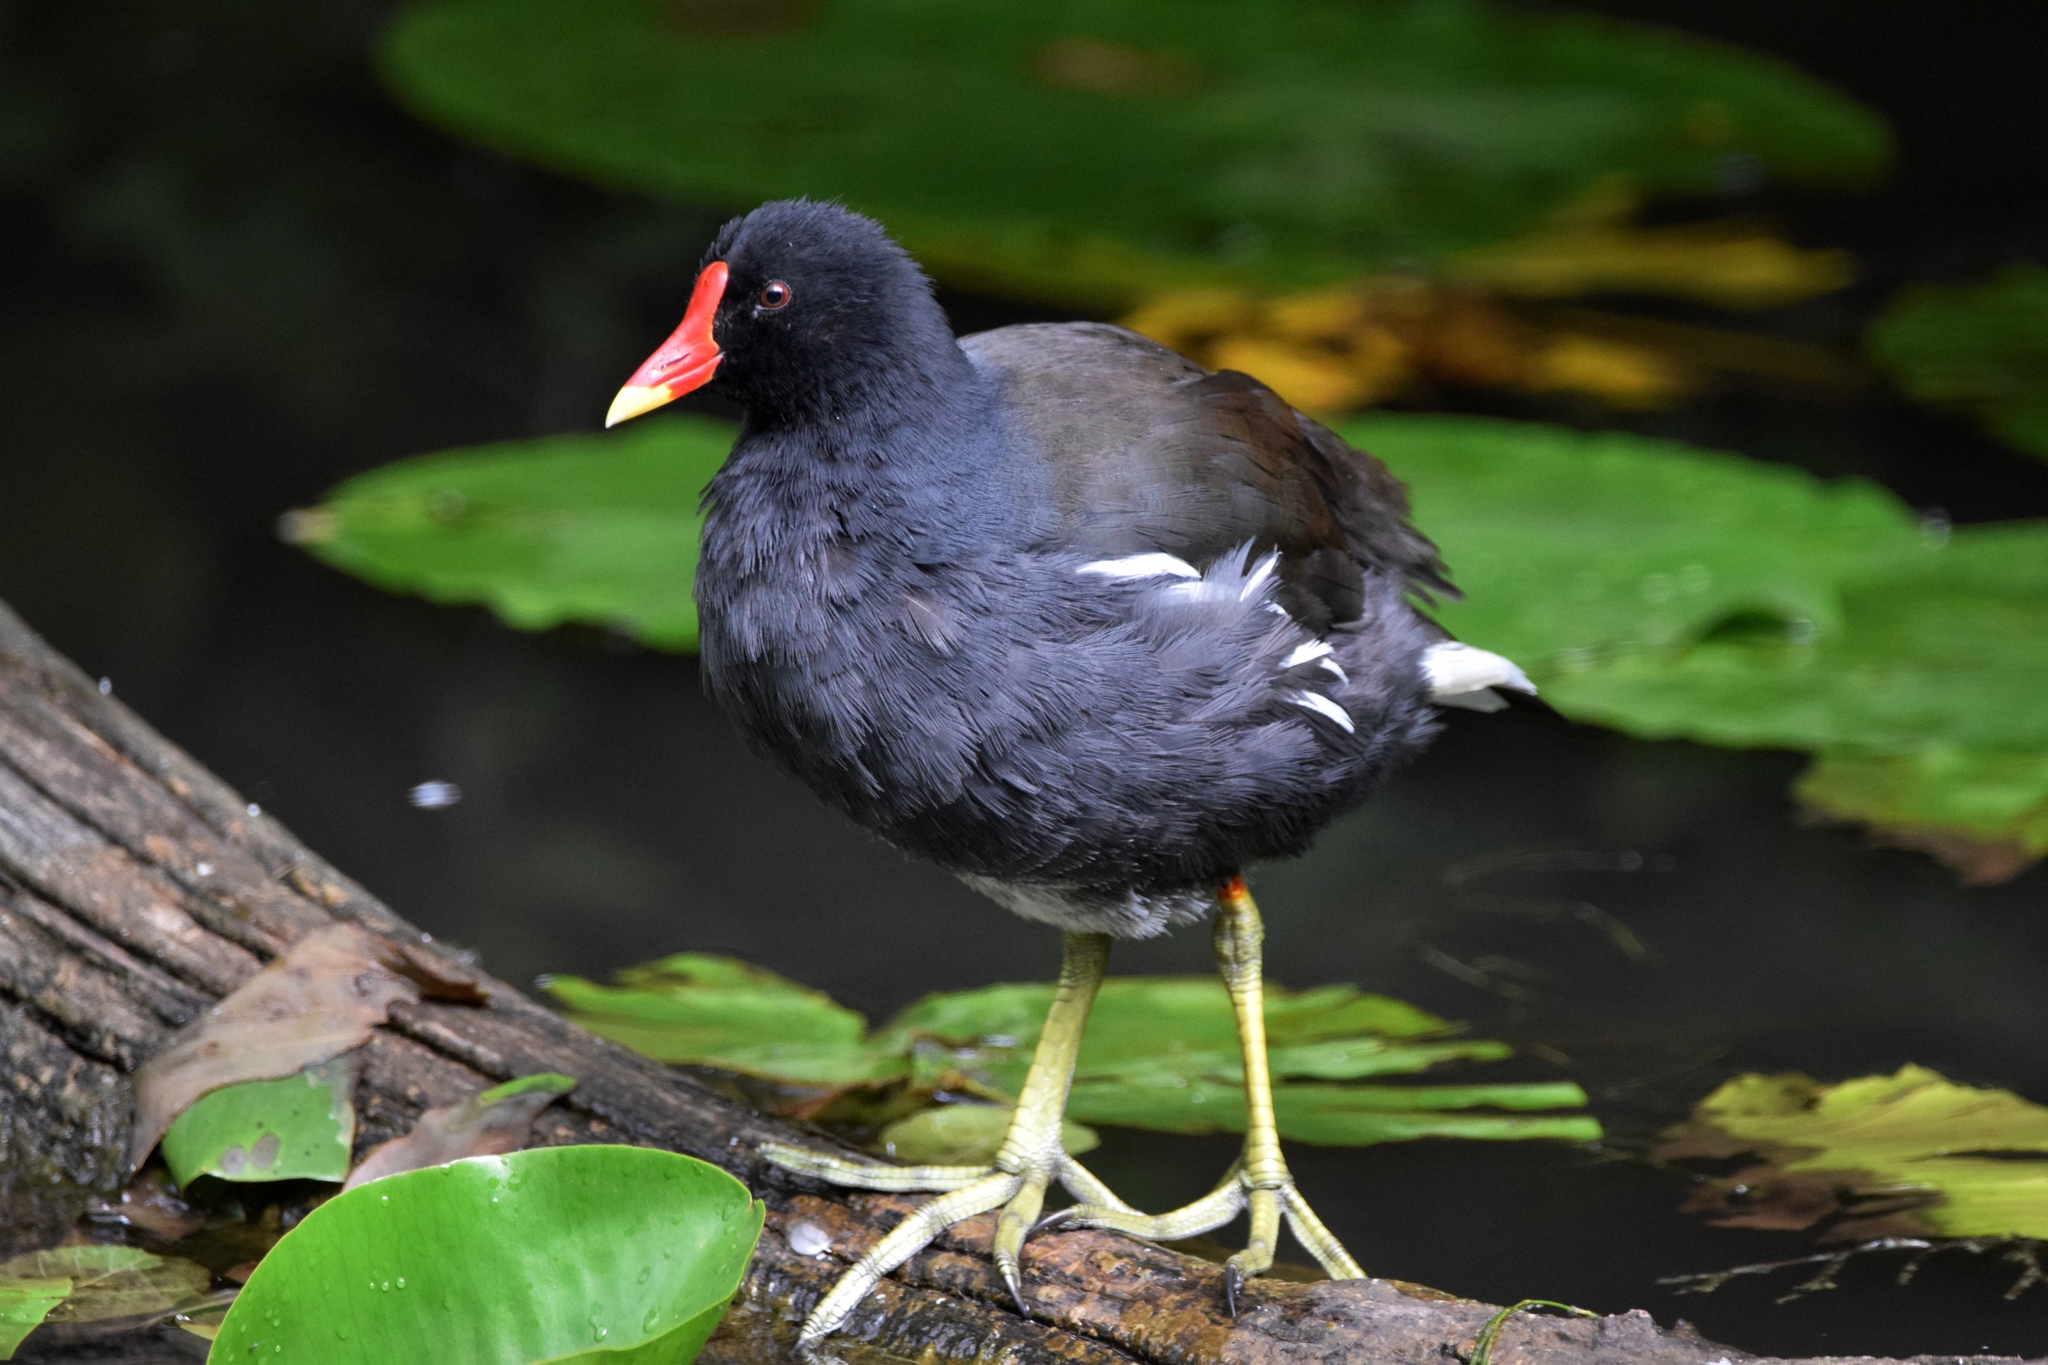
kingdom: Animalia
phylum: Chordata
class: Aves
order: Gruiformes
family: Rallidae
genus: Gallinula
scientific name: Gallinula chloropus
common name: Common moorhen
